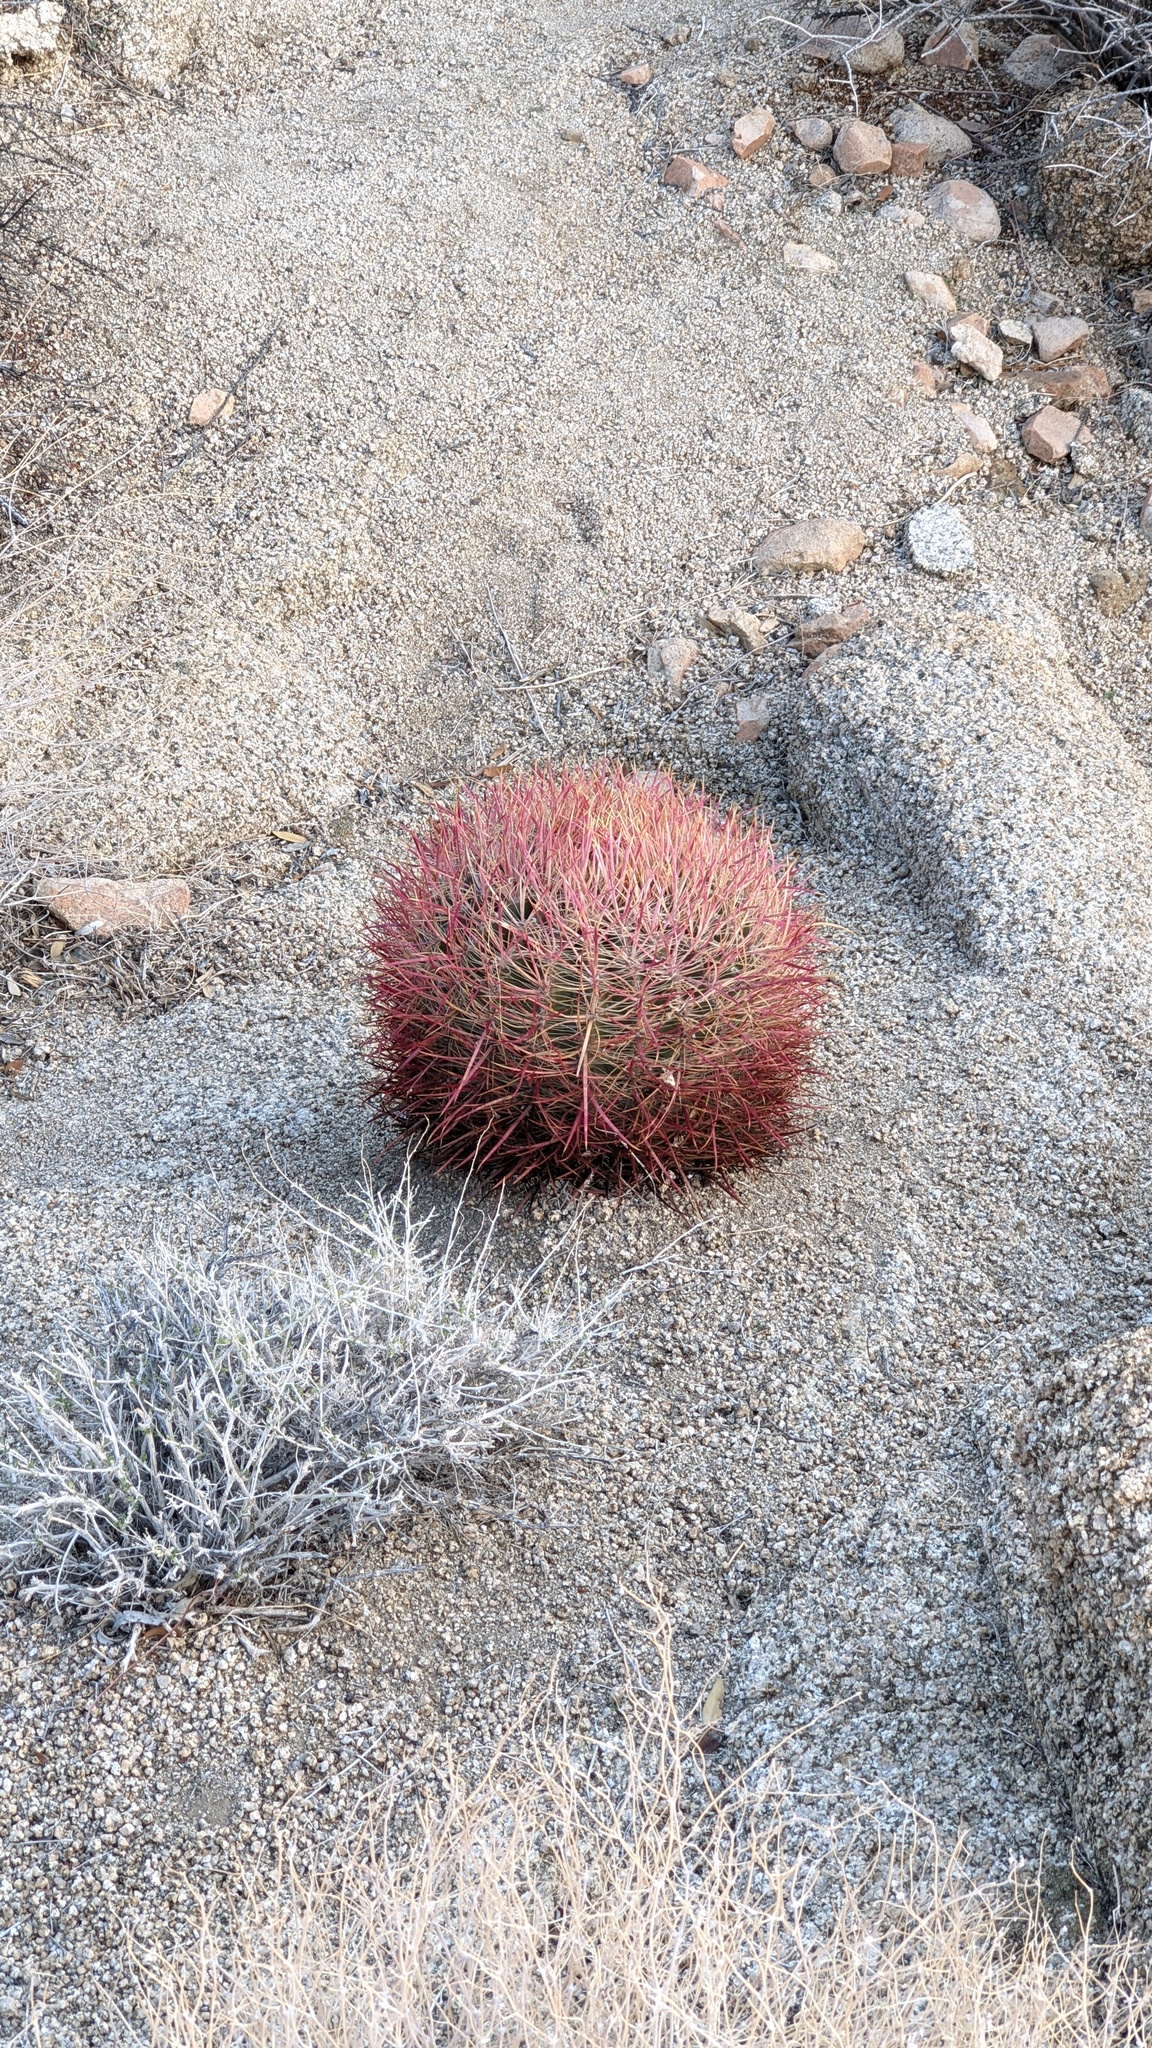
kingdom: Plantae
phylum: Tracheophyta
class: Magnoliopsida
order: Caryophyllales
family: Cactaceae
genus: Ferocactus
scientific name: Ferocactus cylindraceus
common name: California barrel cactus
